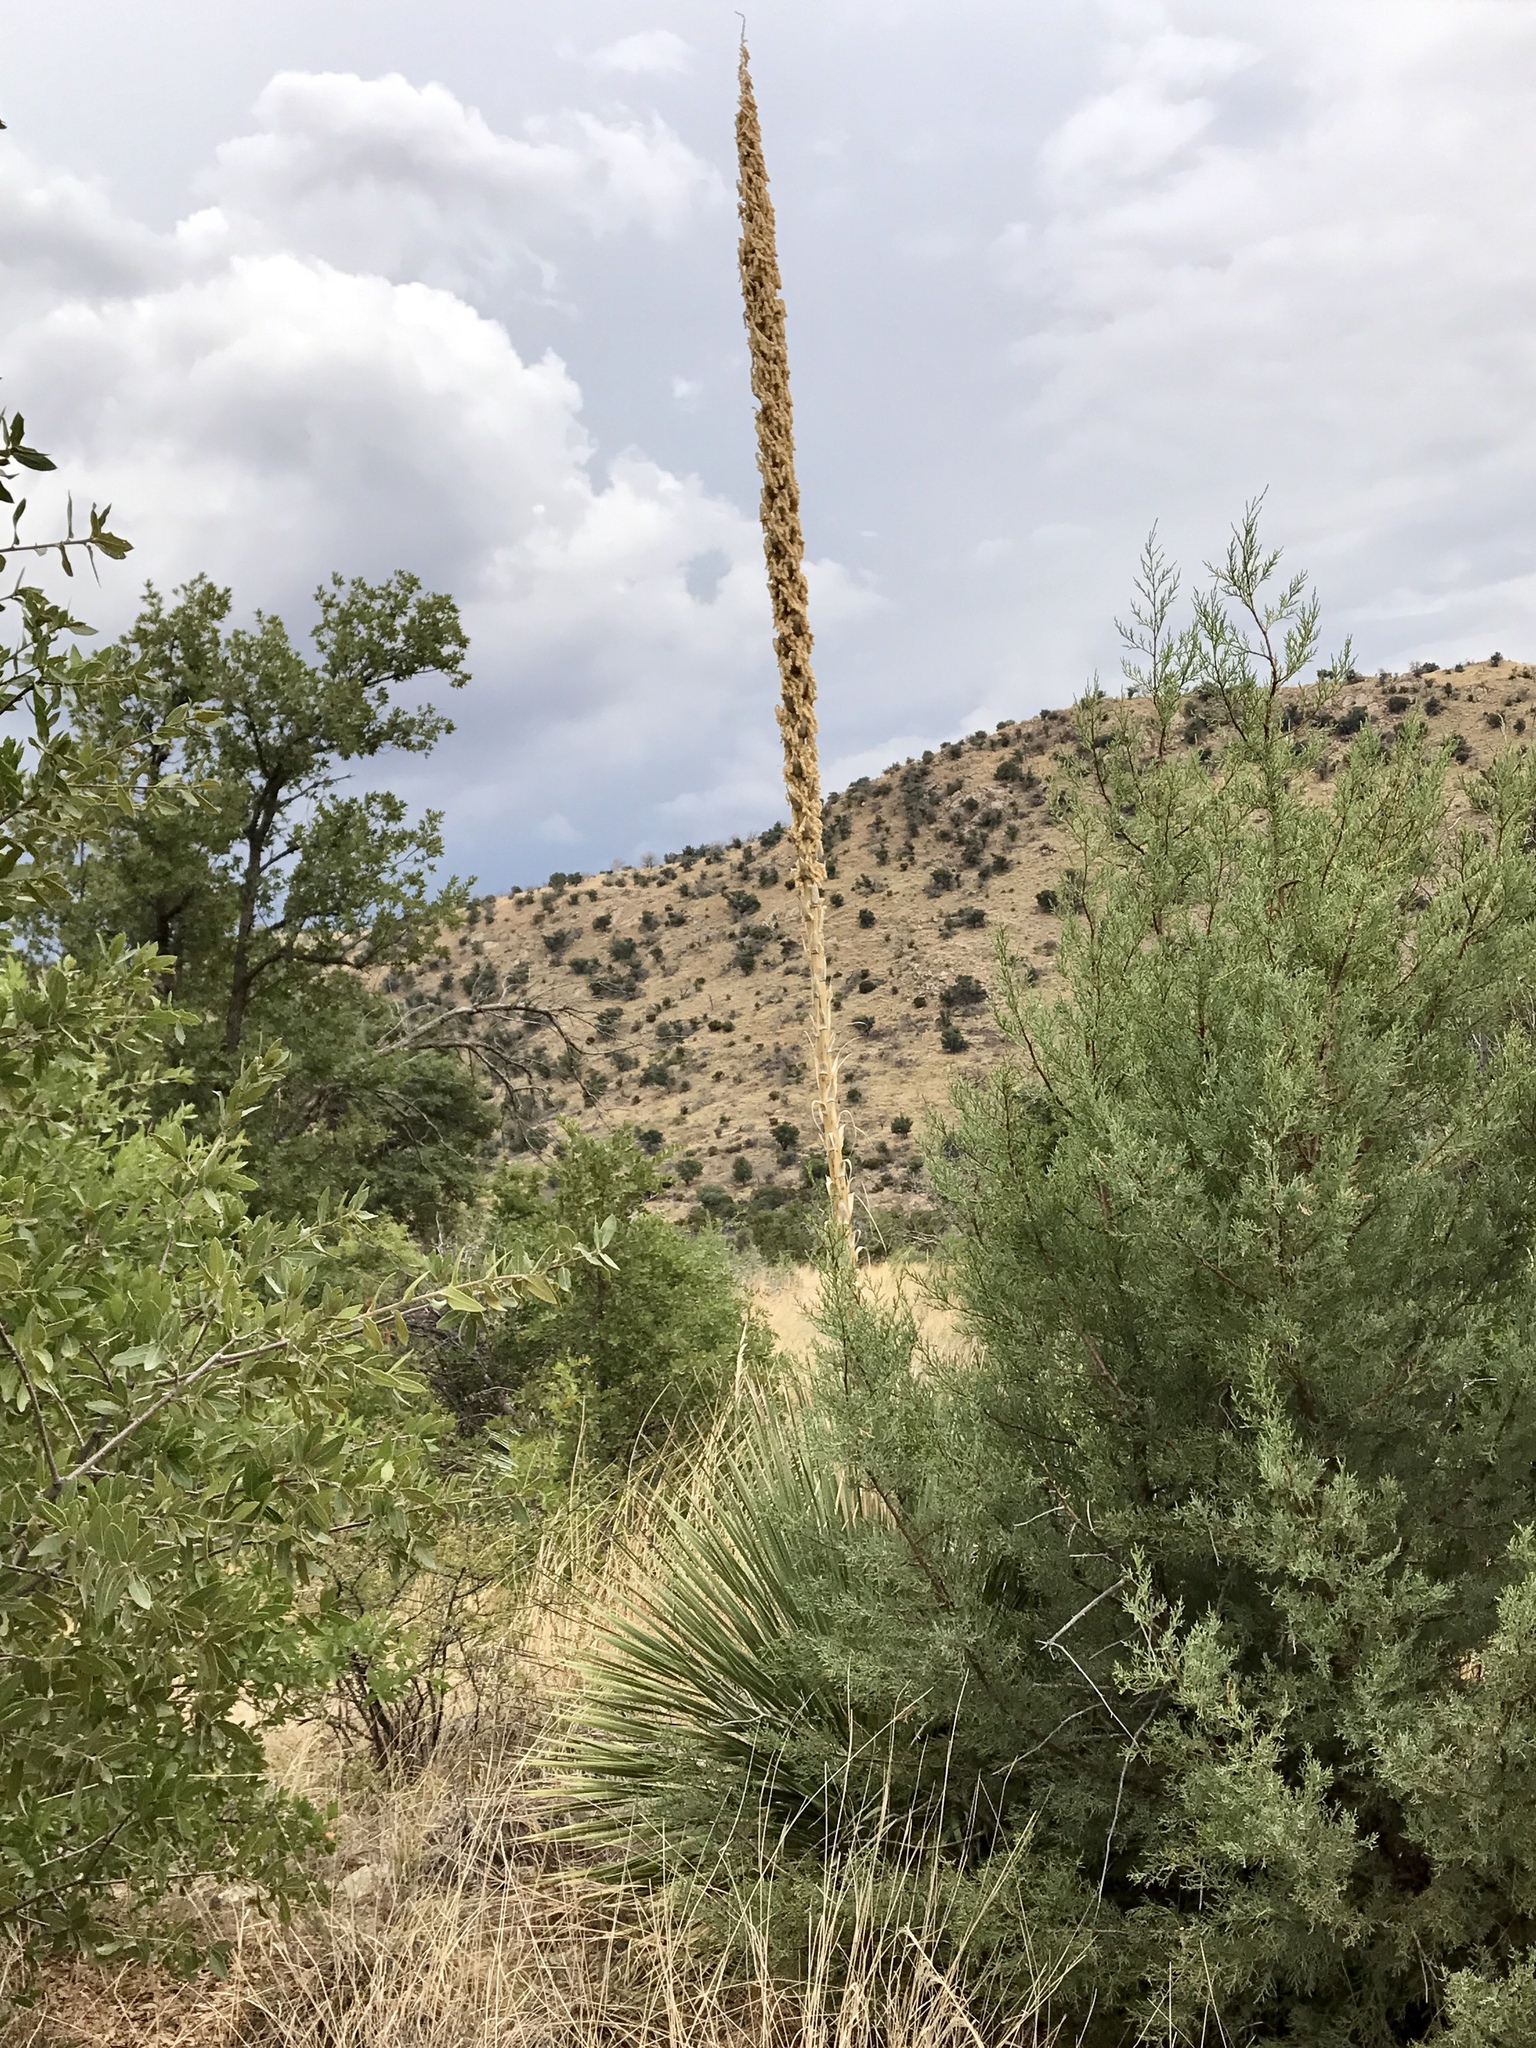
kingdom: Plantae
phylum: Tracheophyta
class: Liliopsida
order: Asparagales
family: Asparagaceae
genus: Dasylirion
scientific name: Dasylirion wheeleri
